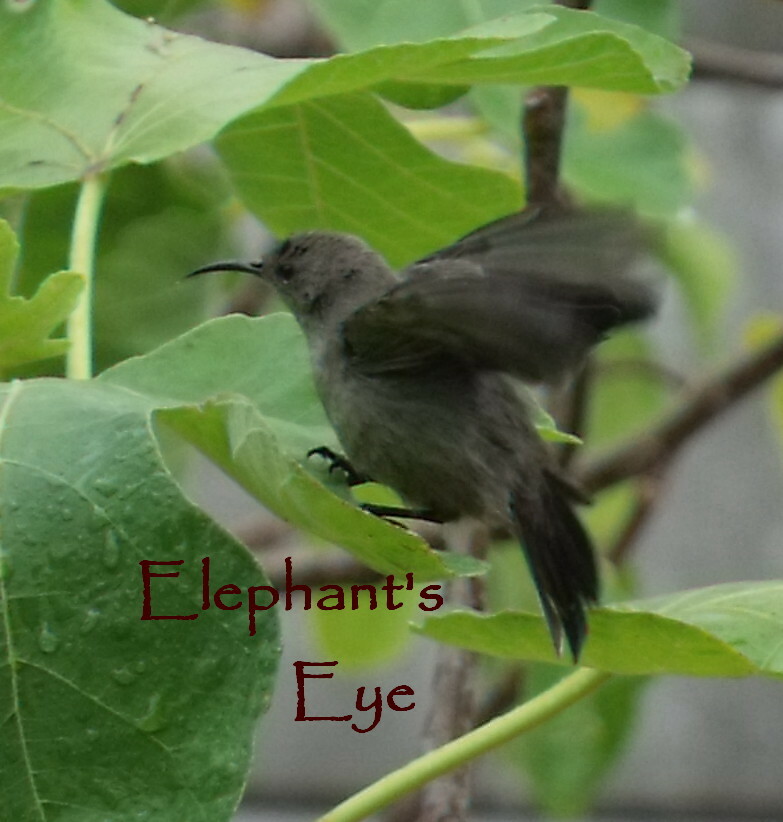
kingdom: Animalia
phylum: Chordata
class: Aves
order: Passeriformes
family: Nectariniidae
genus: Cinnyris
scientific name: Cinnyris chalybeus
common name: Southern double-collared sunbird
